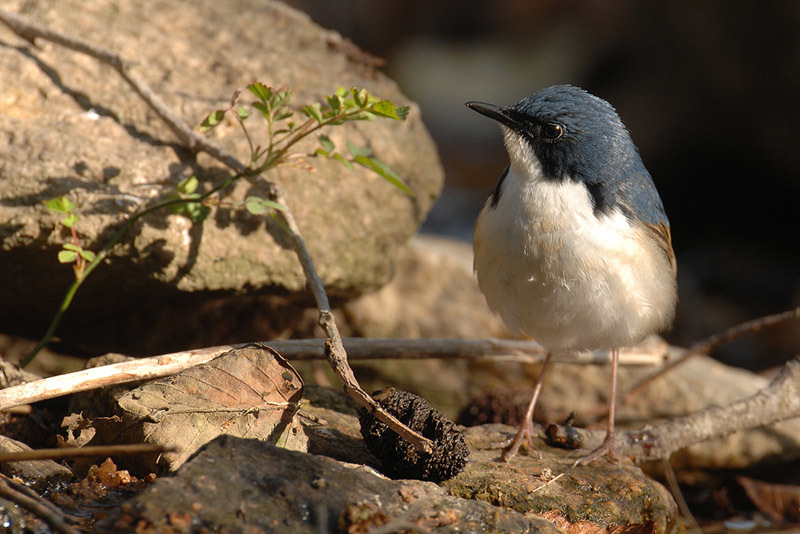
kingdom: Animalia
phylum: Chordata
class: Aves
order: Passeriformes
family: Muscicapidae
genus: Cyanoptila
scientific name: Cyanoptila cyanomelana
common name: Blue-and-white flycatcher
